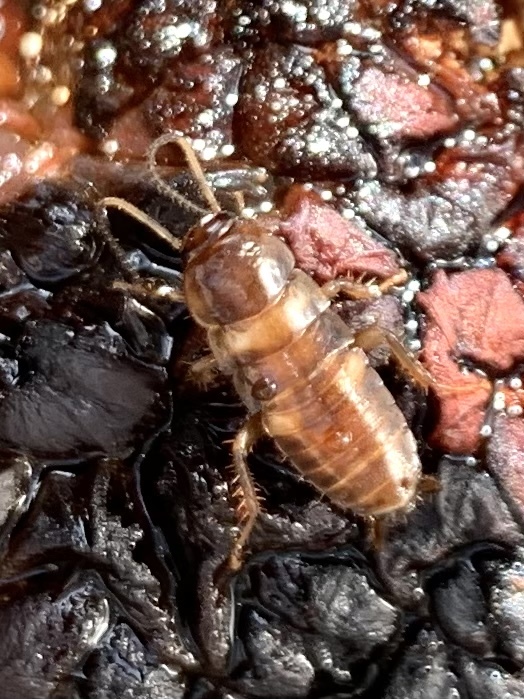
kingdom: Animalia
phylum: Arthropoda
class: Insecta
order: Blattodea
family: Blattidae
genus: Periplaneta
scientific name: Periplaneta fuliginosa
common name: Smokeybrown cockroad
